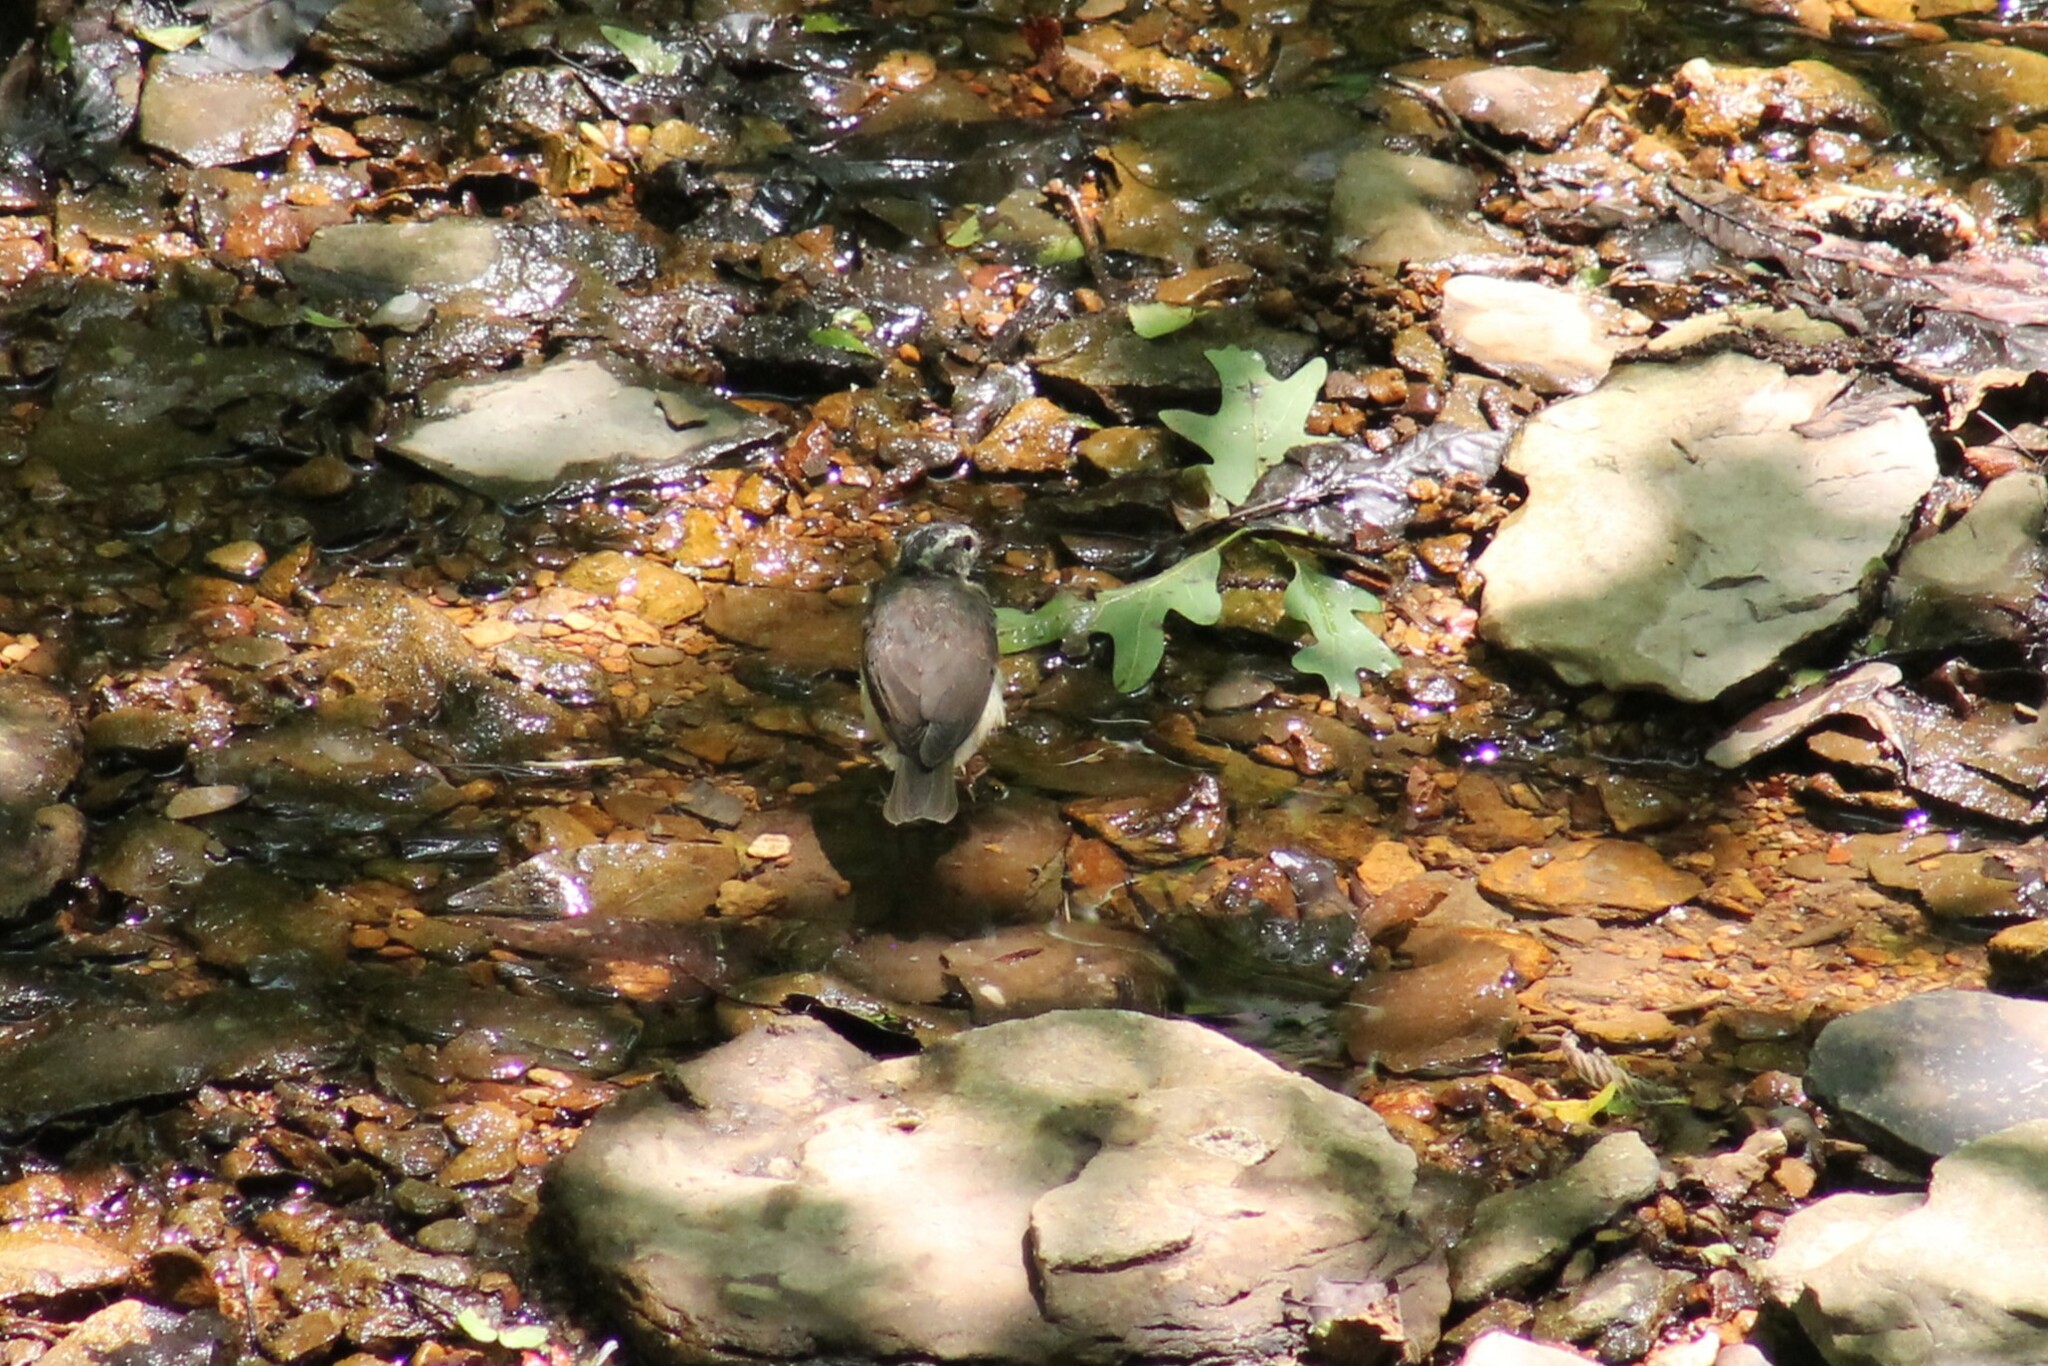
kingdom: Animalia
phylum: Chordata
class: Aves
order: Passeriformes
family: Parulidae
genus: Parkesia
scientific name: Parkesia motacilla
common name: Louisiana waterthrush
